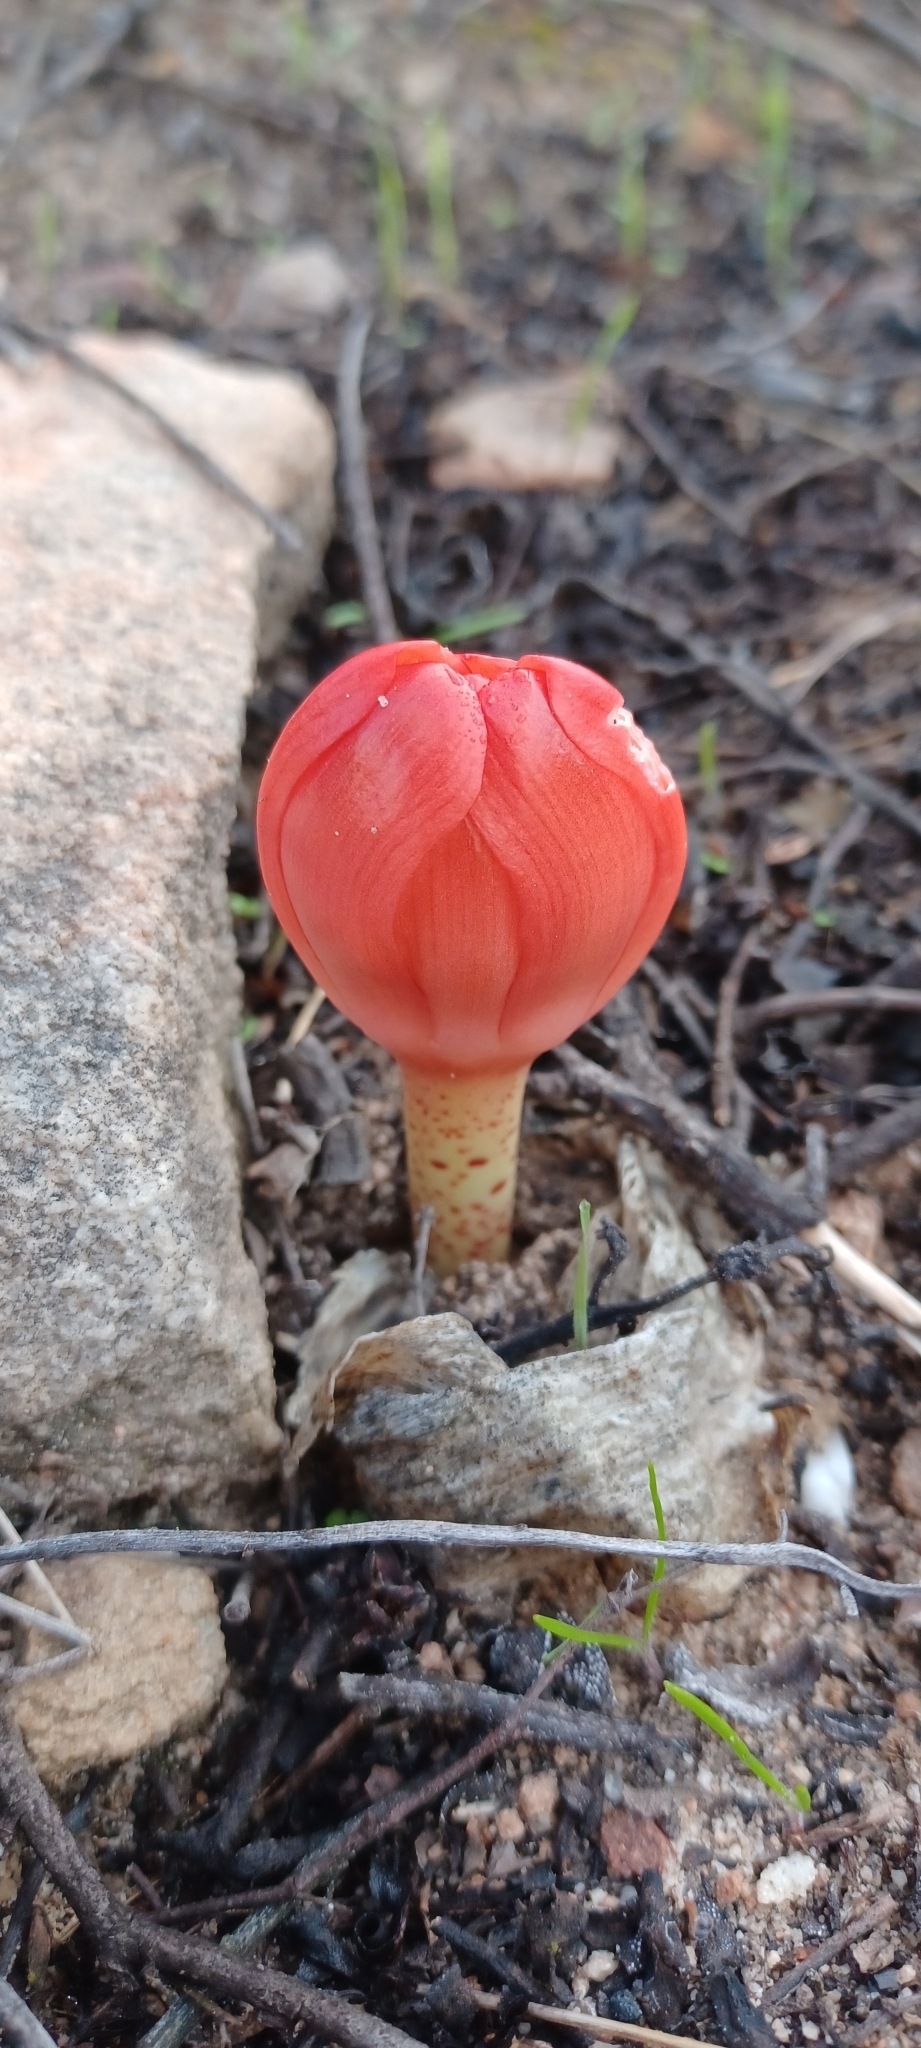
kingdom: Plantae
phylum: Tracheophyta
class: Liliopsida
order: Asparagales
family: Amaryllidaceae
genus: Haemanthus
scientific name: Haemanthus coccineus
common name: Cape-tulip
